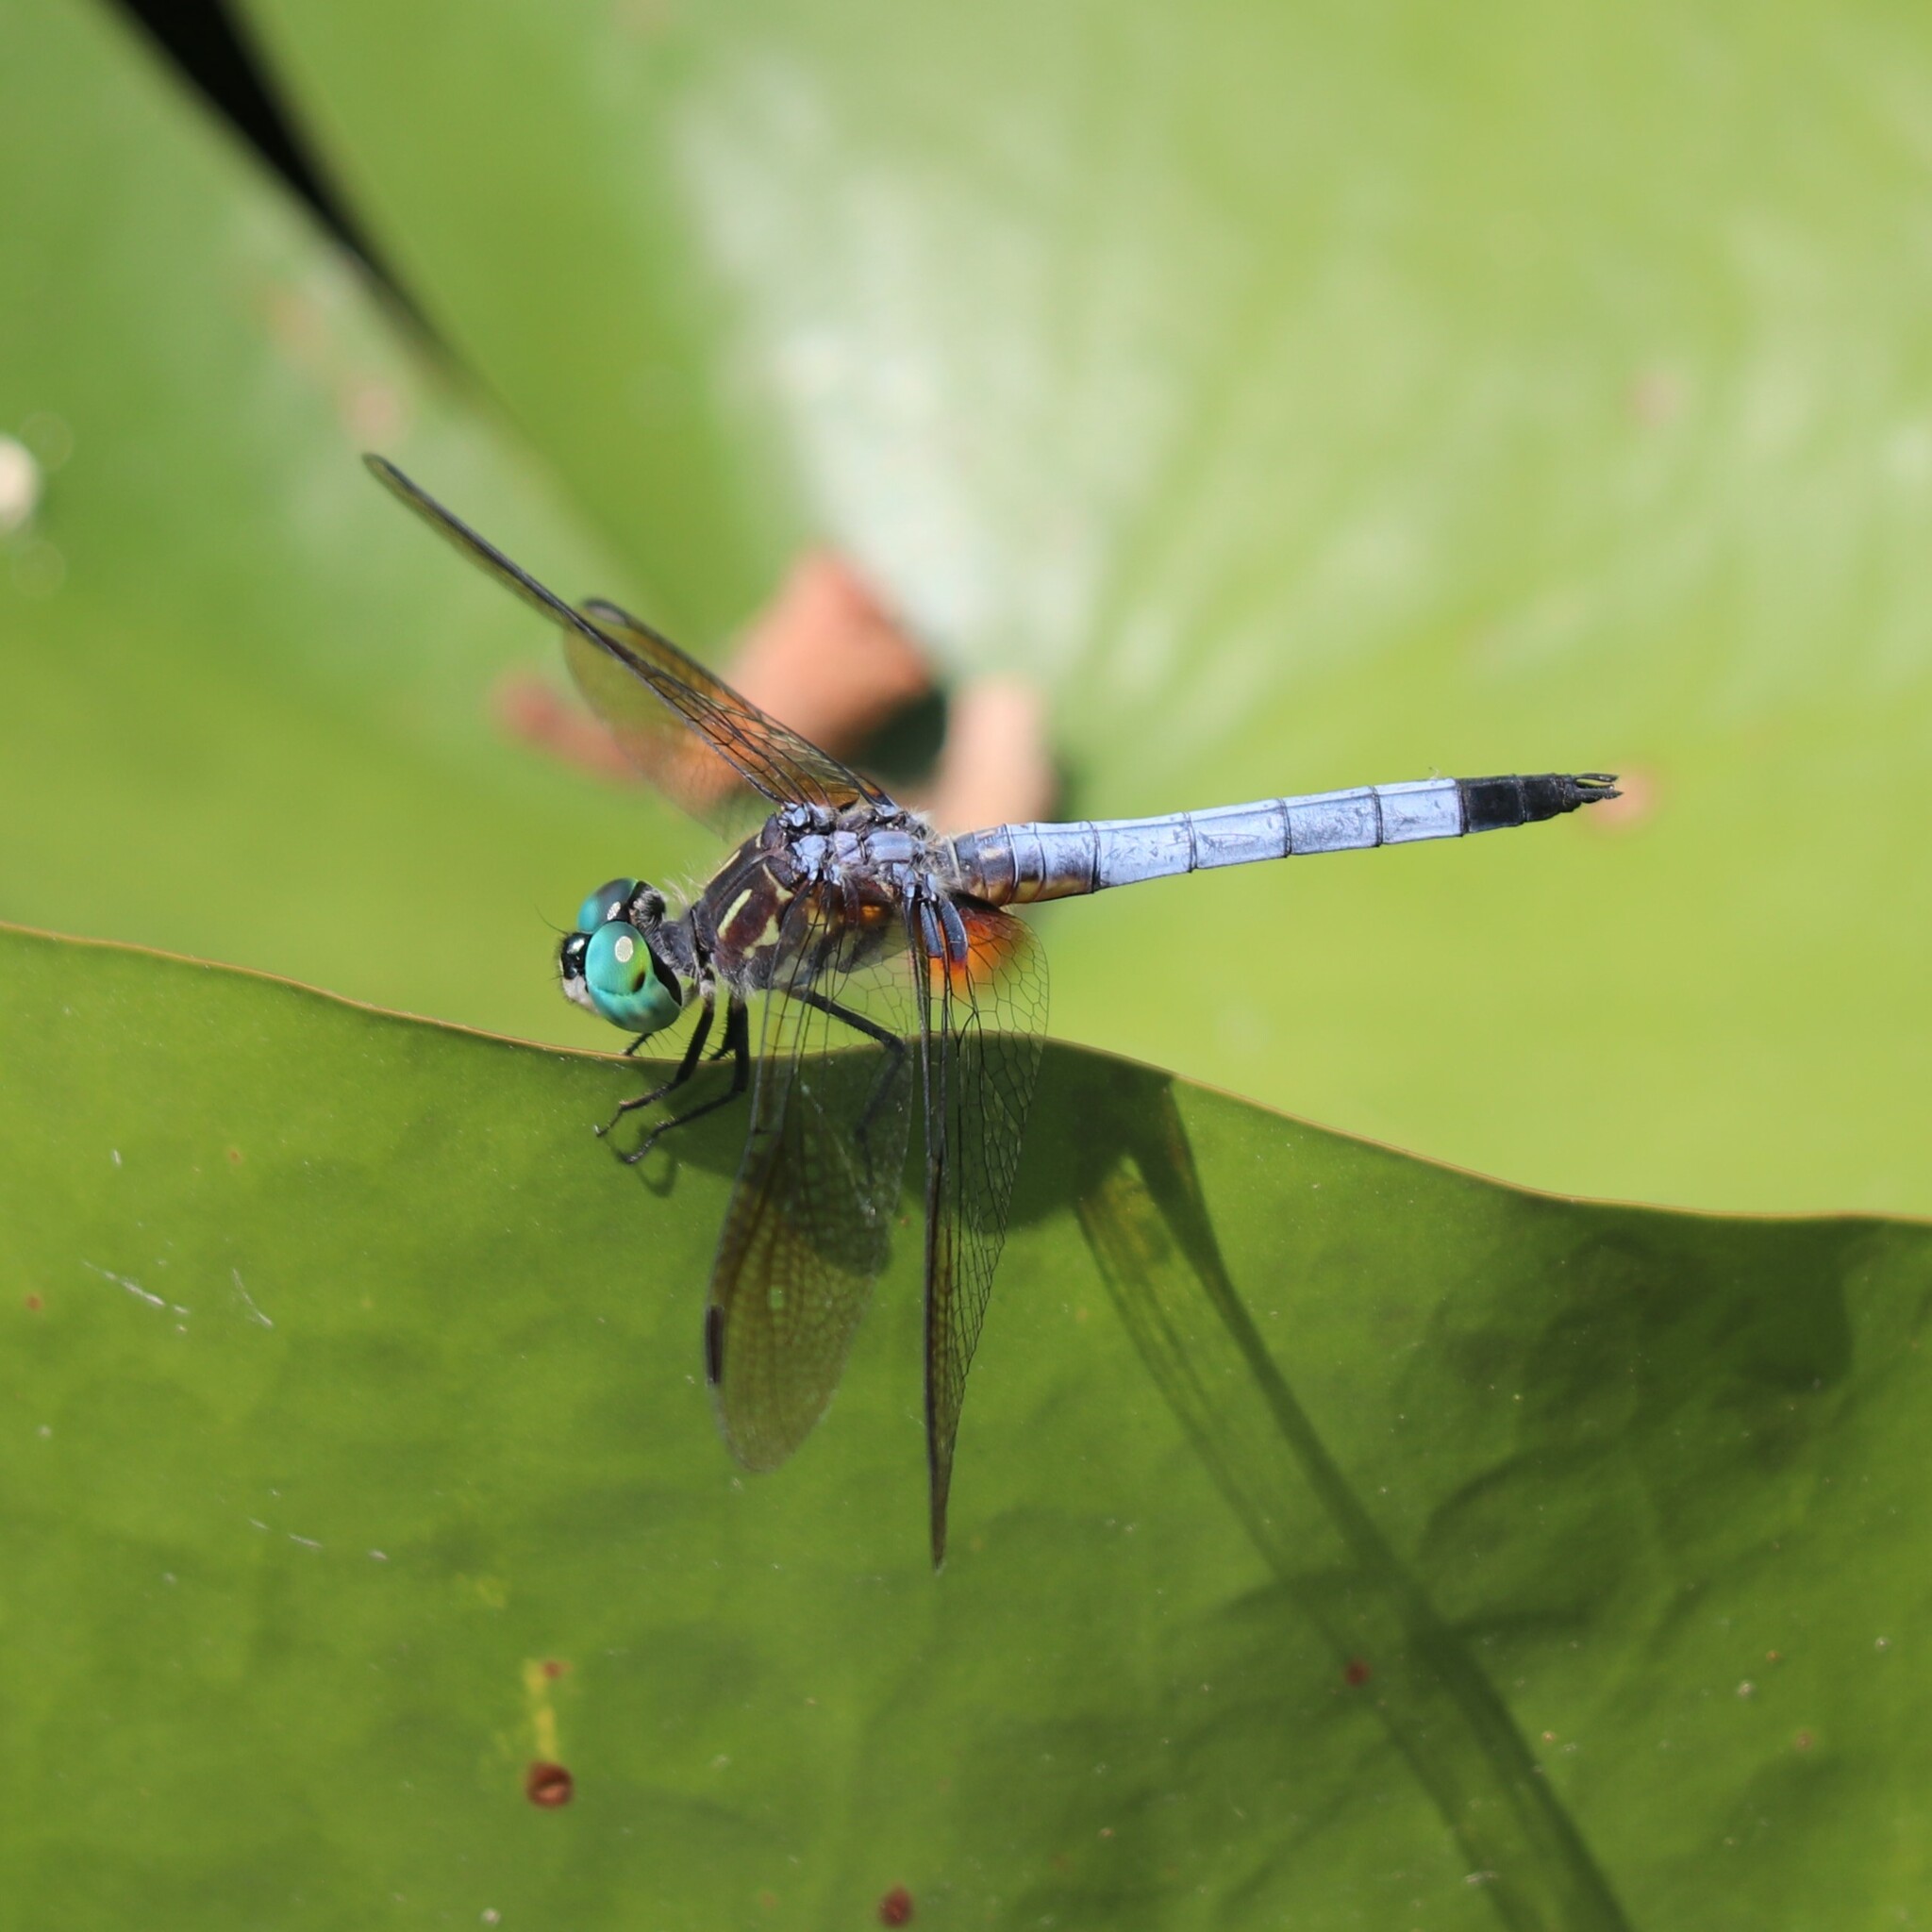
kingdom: Animalia
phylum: Arthropoda
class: Insecta
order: Odonata
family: Libellulidae
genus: Pachydiplax
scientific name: Pachydiplax longipennis
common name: Blue dasher
